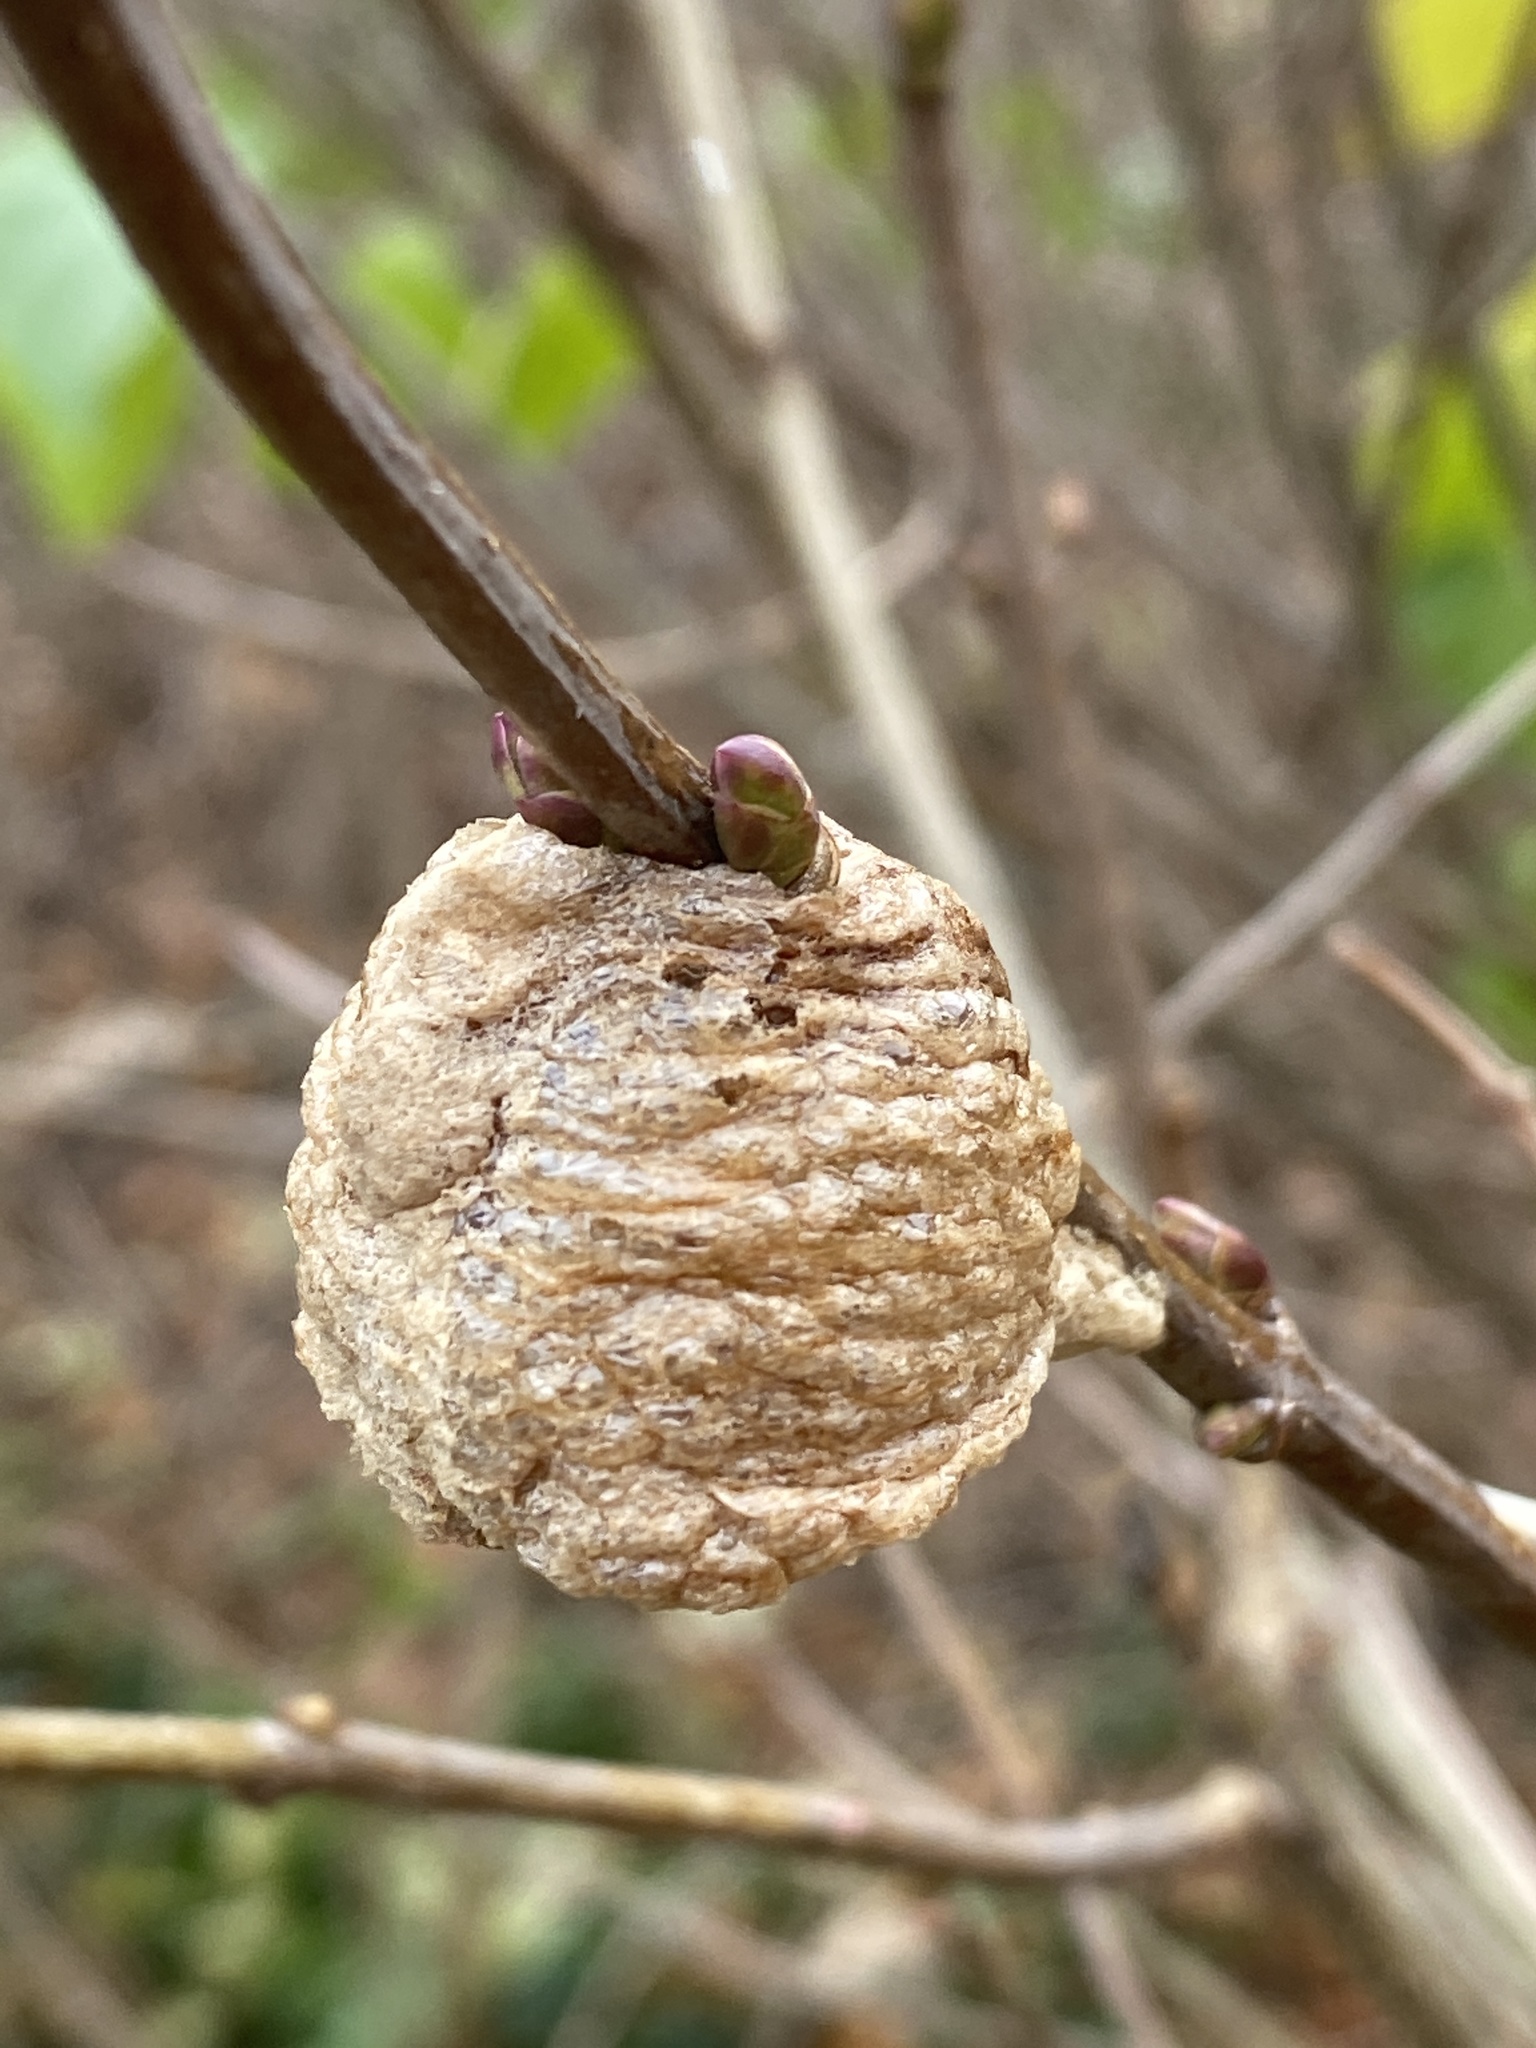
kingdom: Animalia
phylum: Arthropoda
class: Insecta
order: Mantodea
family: Mantidae
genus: Tenodera
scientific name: Tenodera sinensis
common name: Chinese mantis
